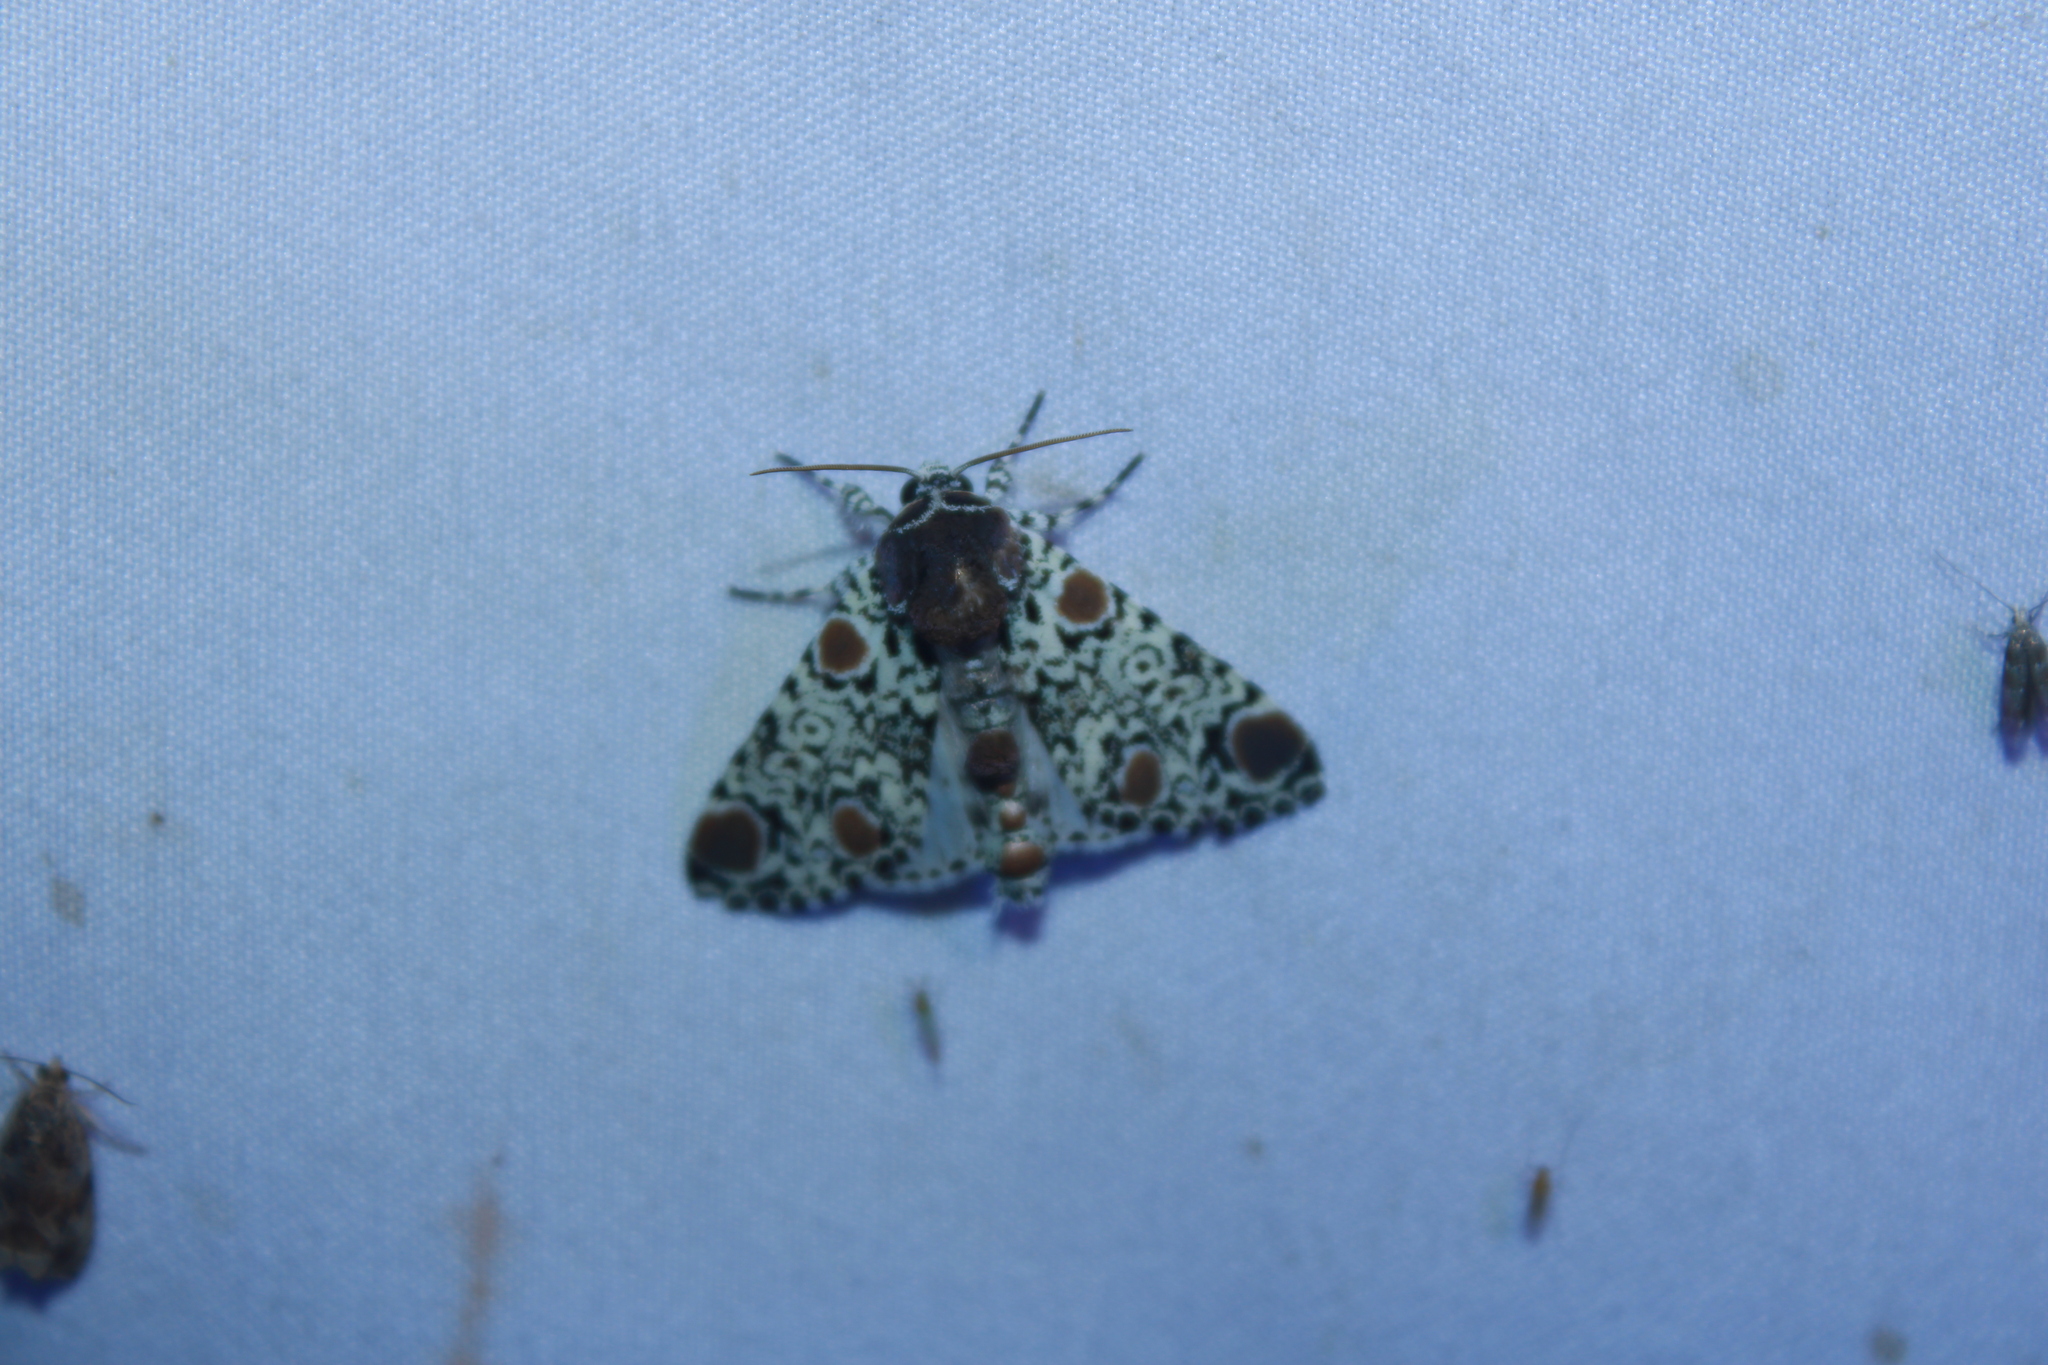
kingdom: Animalia
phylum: Arthropoda
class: Insecta
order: Lepidoptera
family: Noctuidae
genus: Harrisimemna
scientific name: Harrisimemna trisignata
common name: Harris threespot
